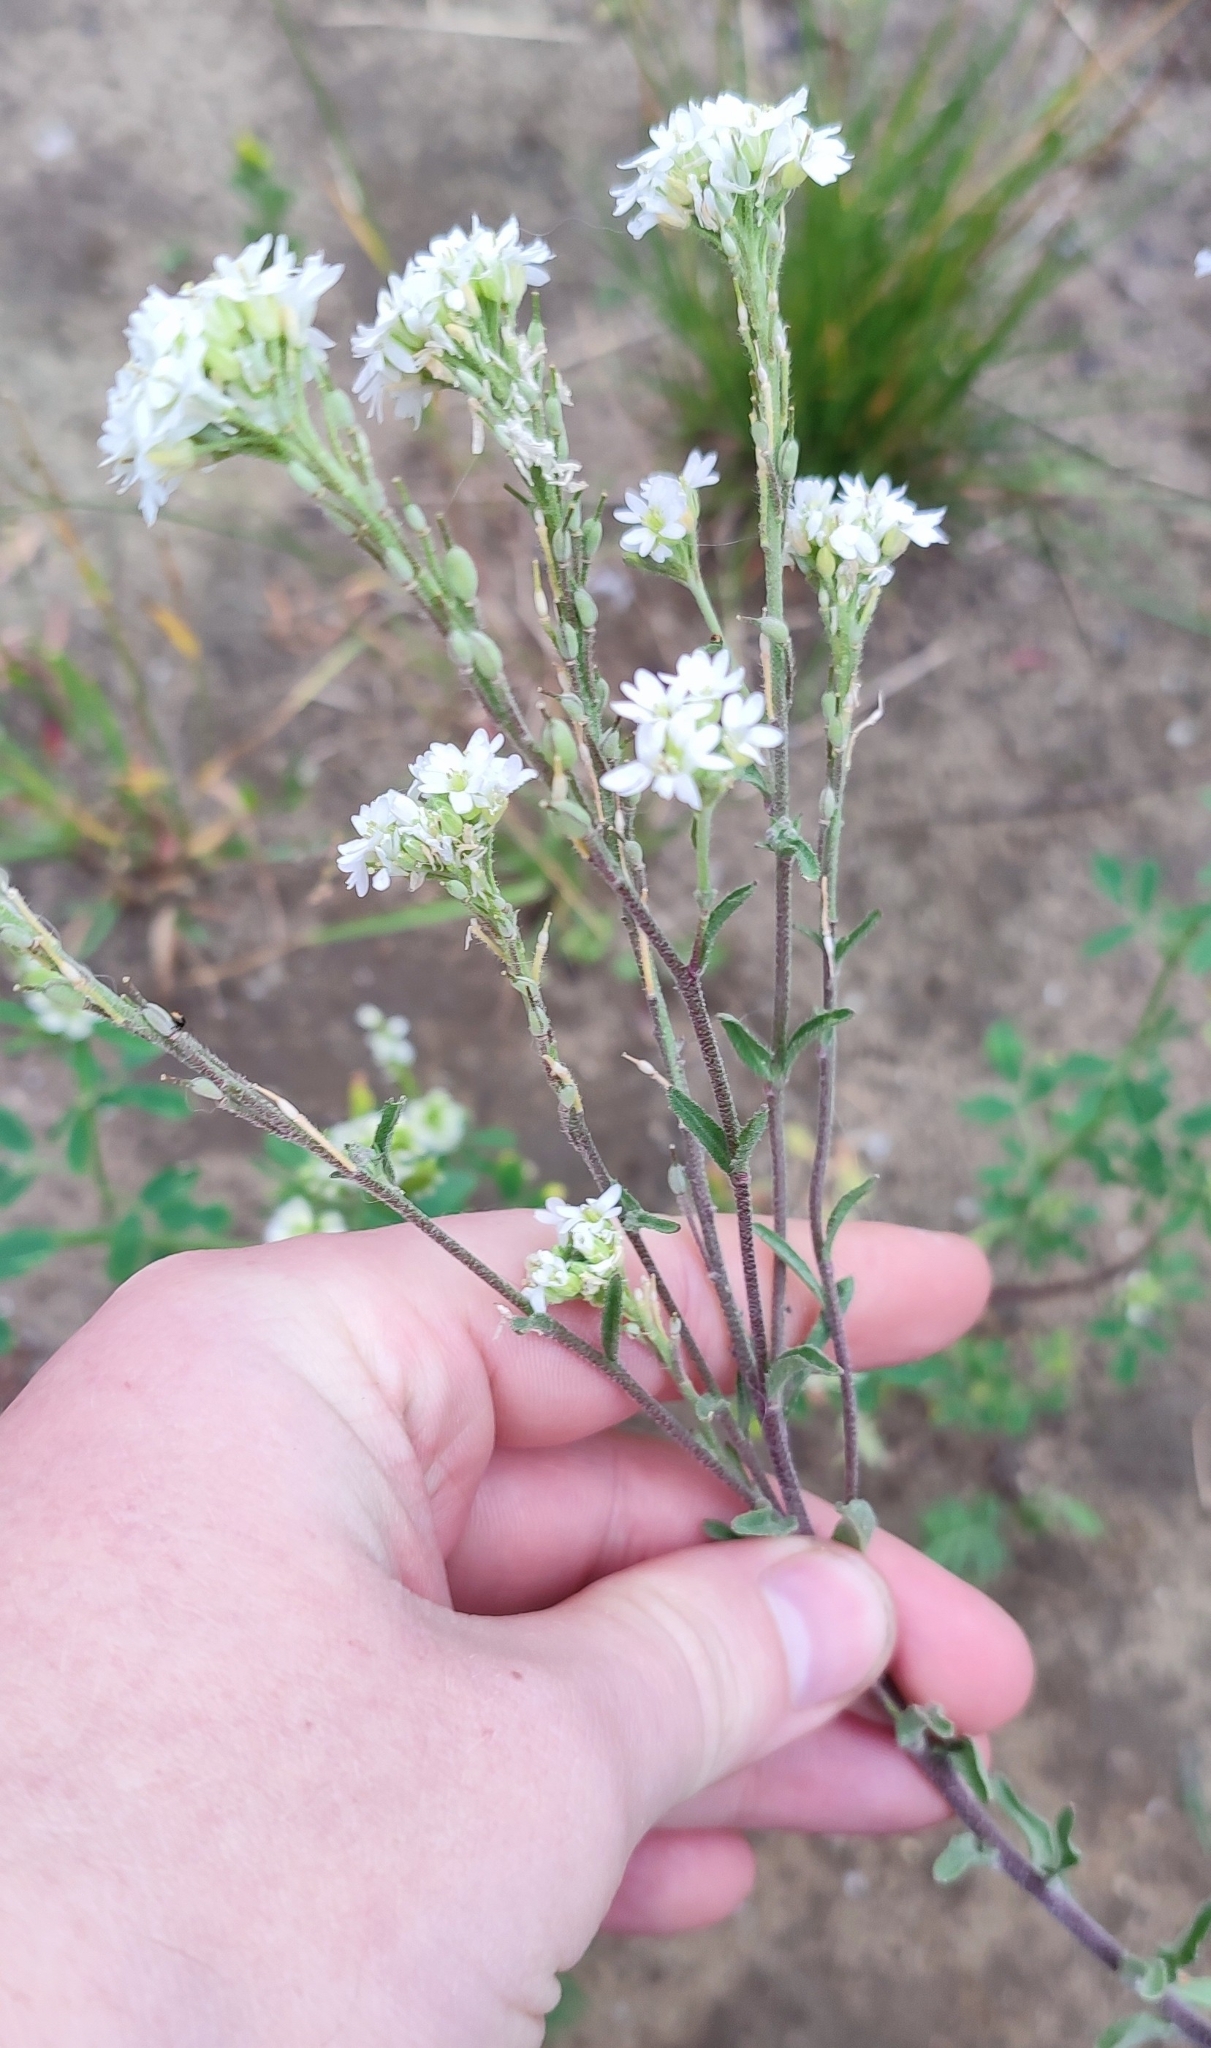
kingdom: Plantae
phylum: Tracheophyta
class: Magnoliopsida
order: Brassicales
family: Brassicaceae
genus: Berteroa
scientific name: Berteroa incana
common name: Hoary alison
